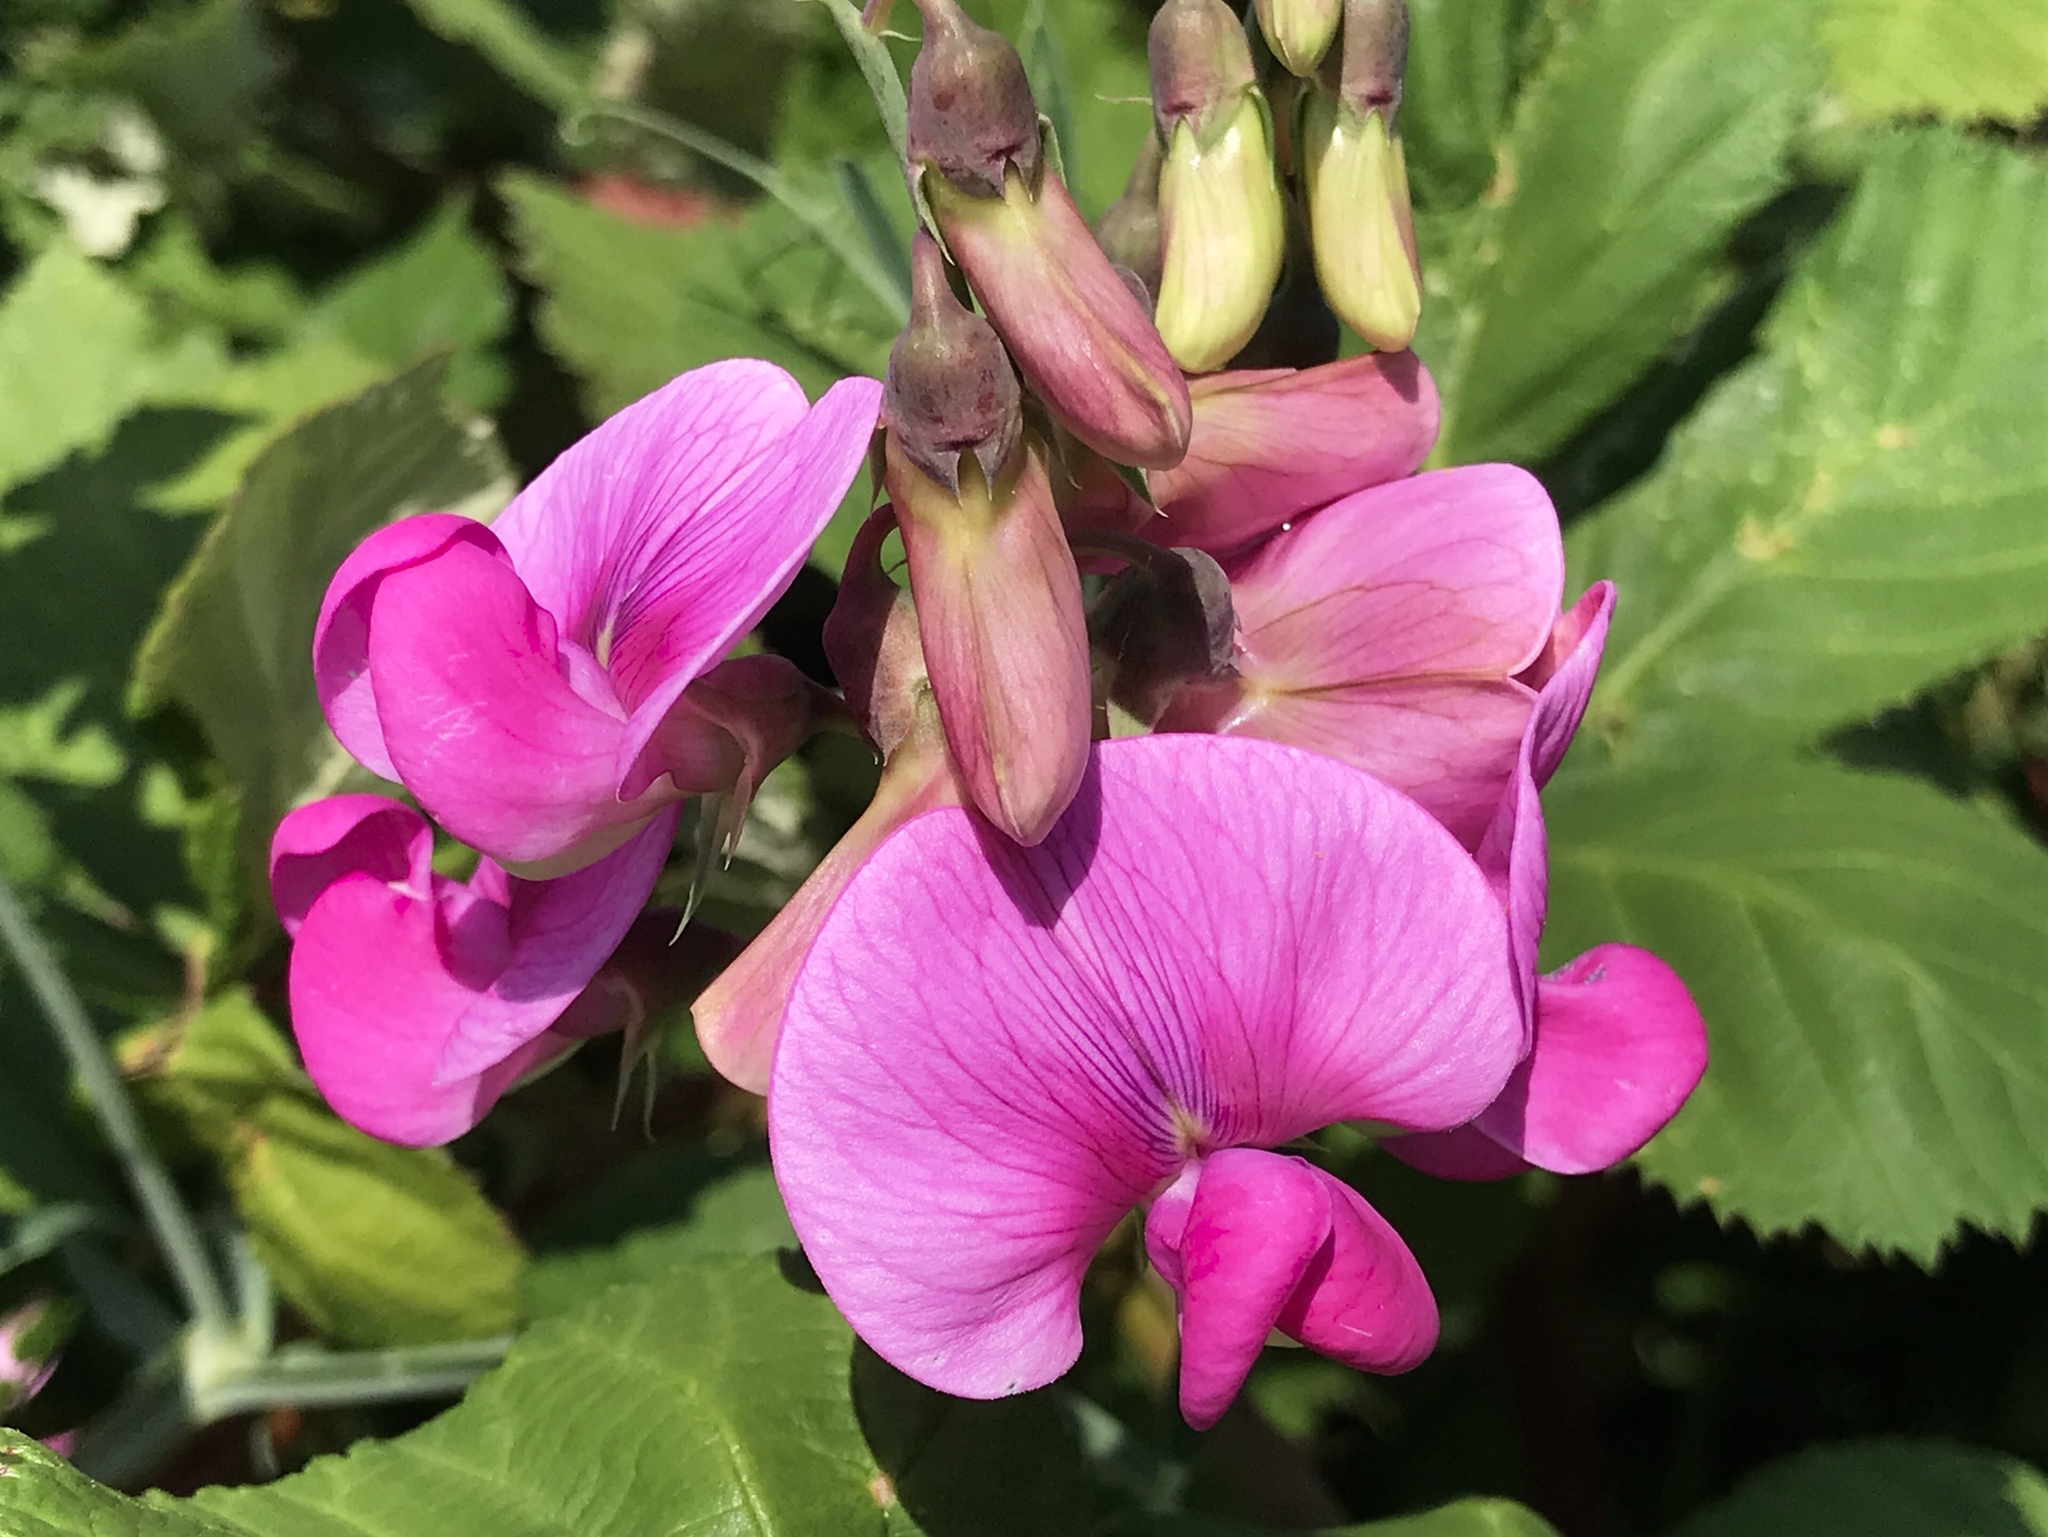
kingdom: Plantae
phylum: Tracheophyta
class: Magnoliopsida
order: Fabales
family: Fabaceae
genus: Lathyrus
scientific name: Lathyrus latifolius
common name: Perennial pea
